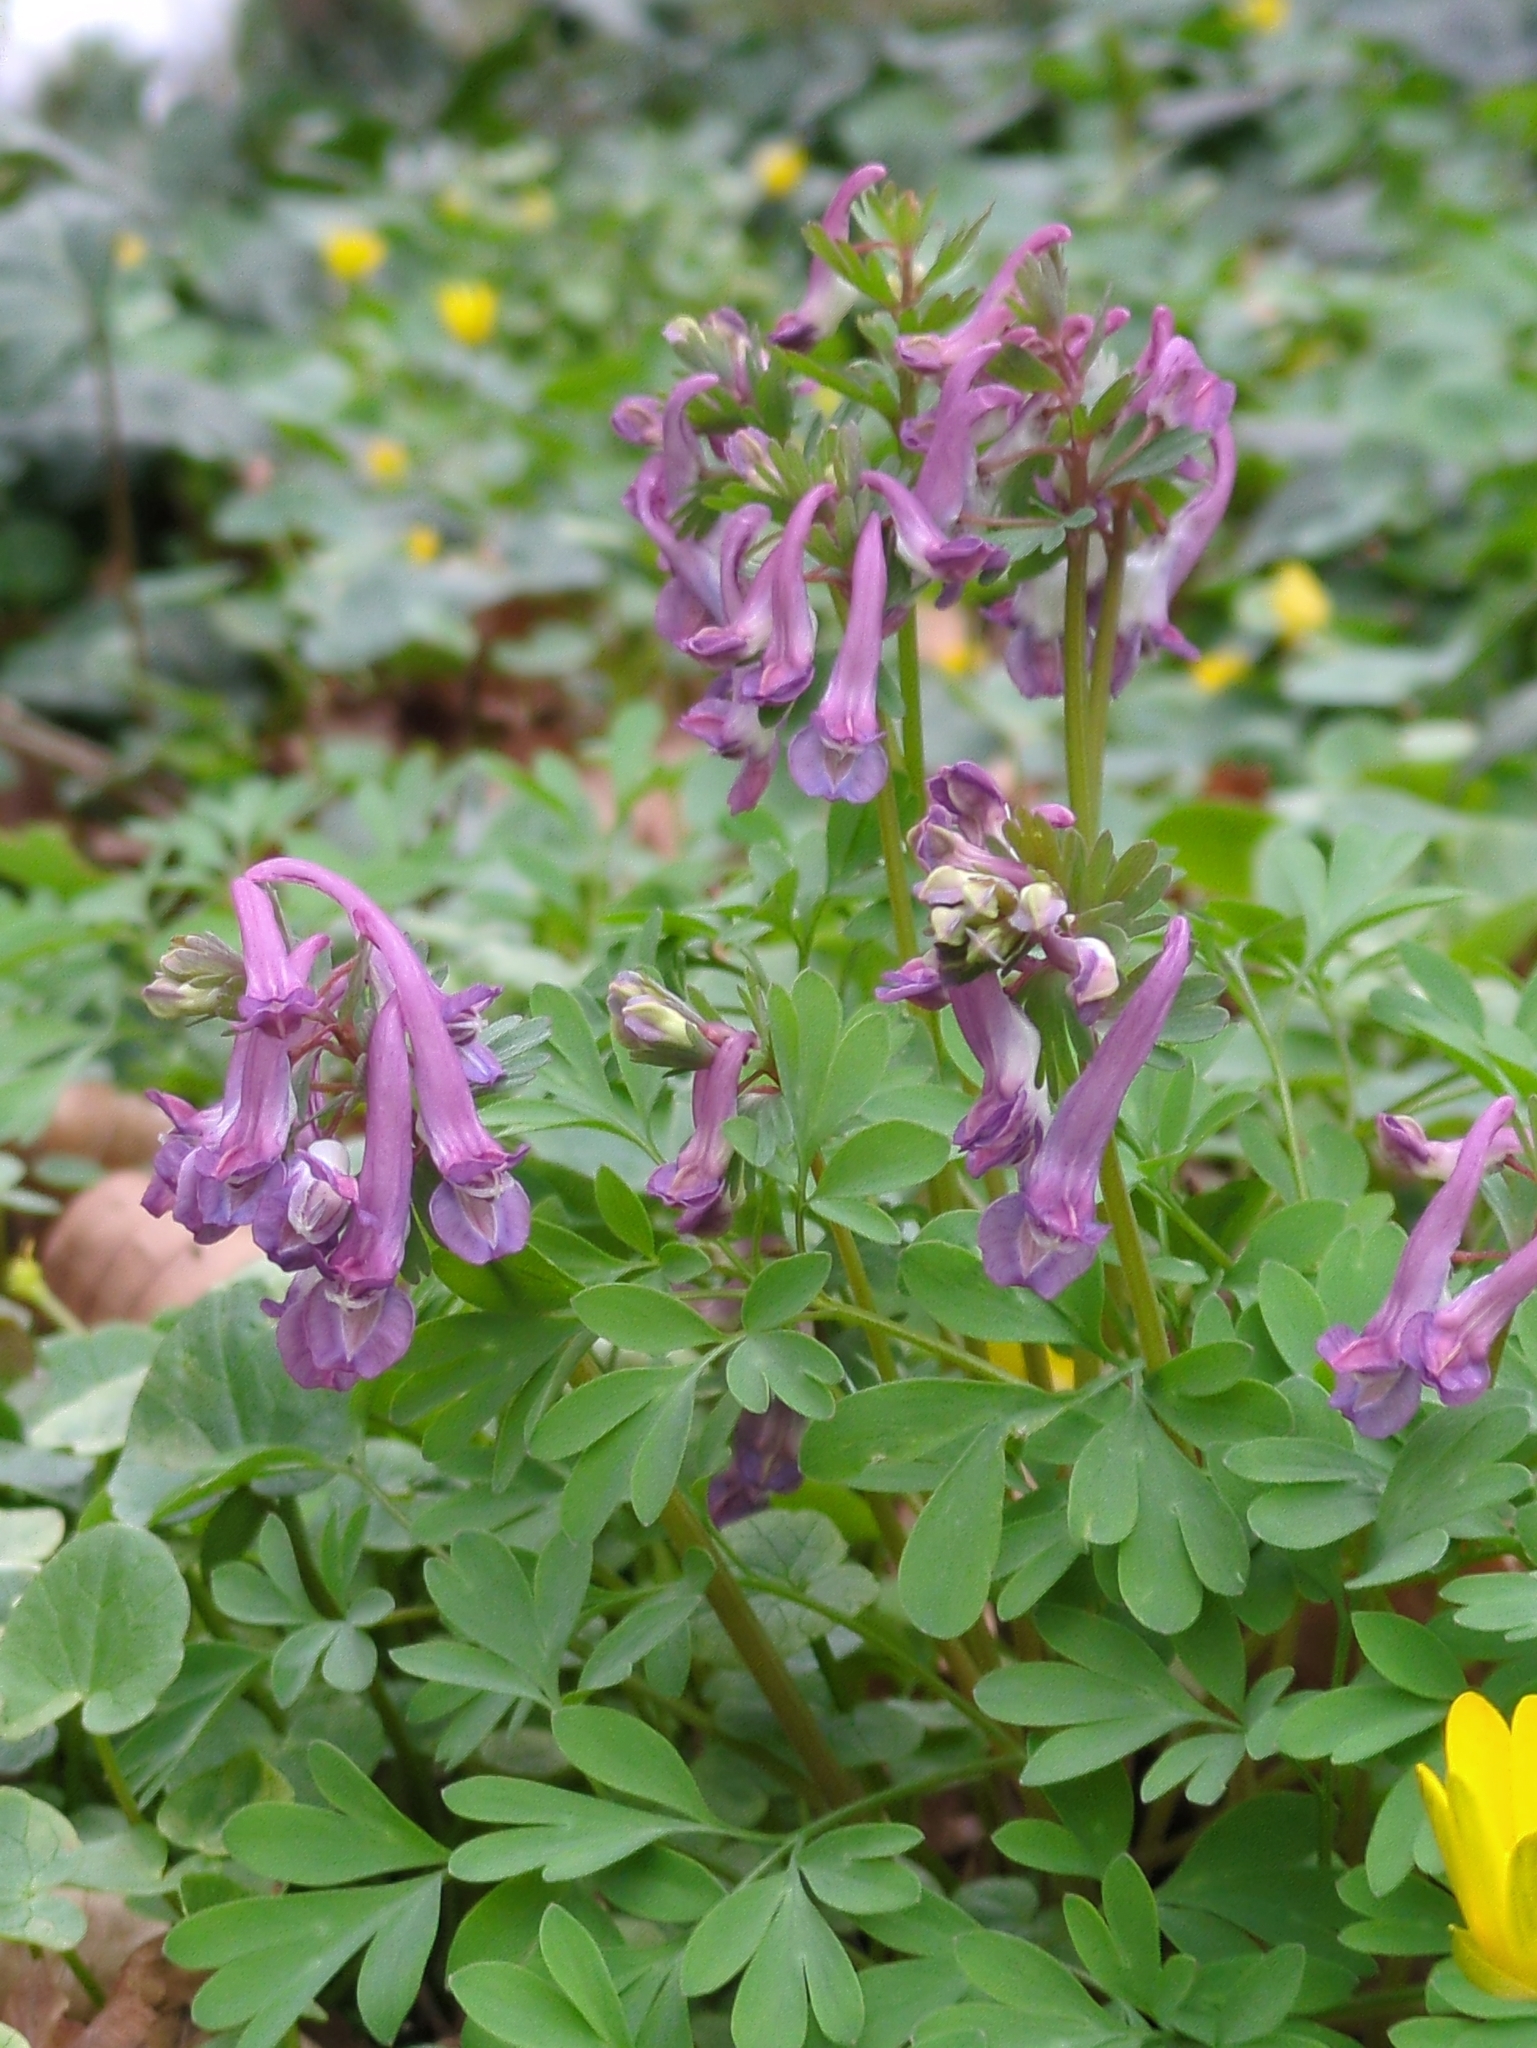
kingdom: Plantae
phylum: Tracheophyta
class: Magnoliopsida
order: Ranunculales
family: Papaveraceae
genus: Corydalis
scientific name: Corydalis solida
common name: Bird-in-a-bush
